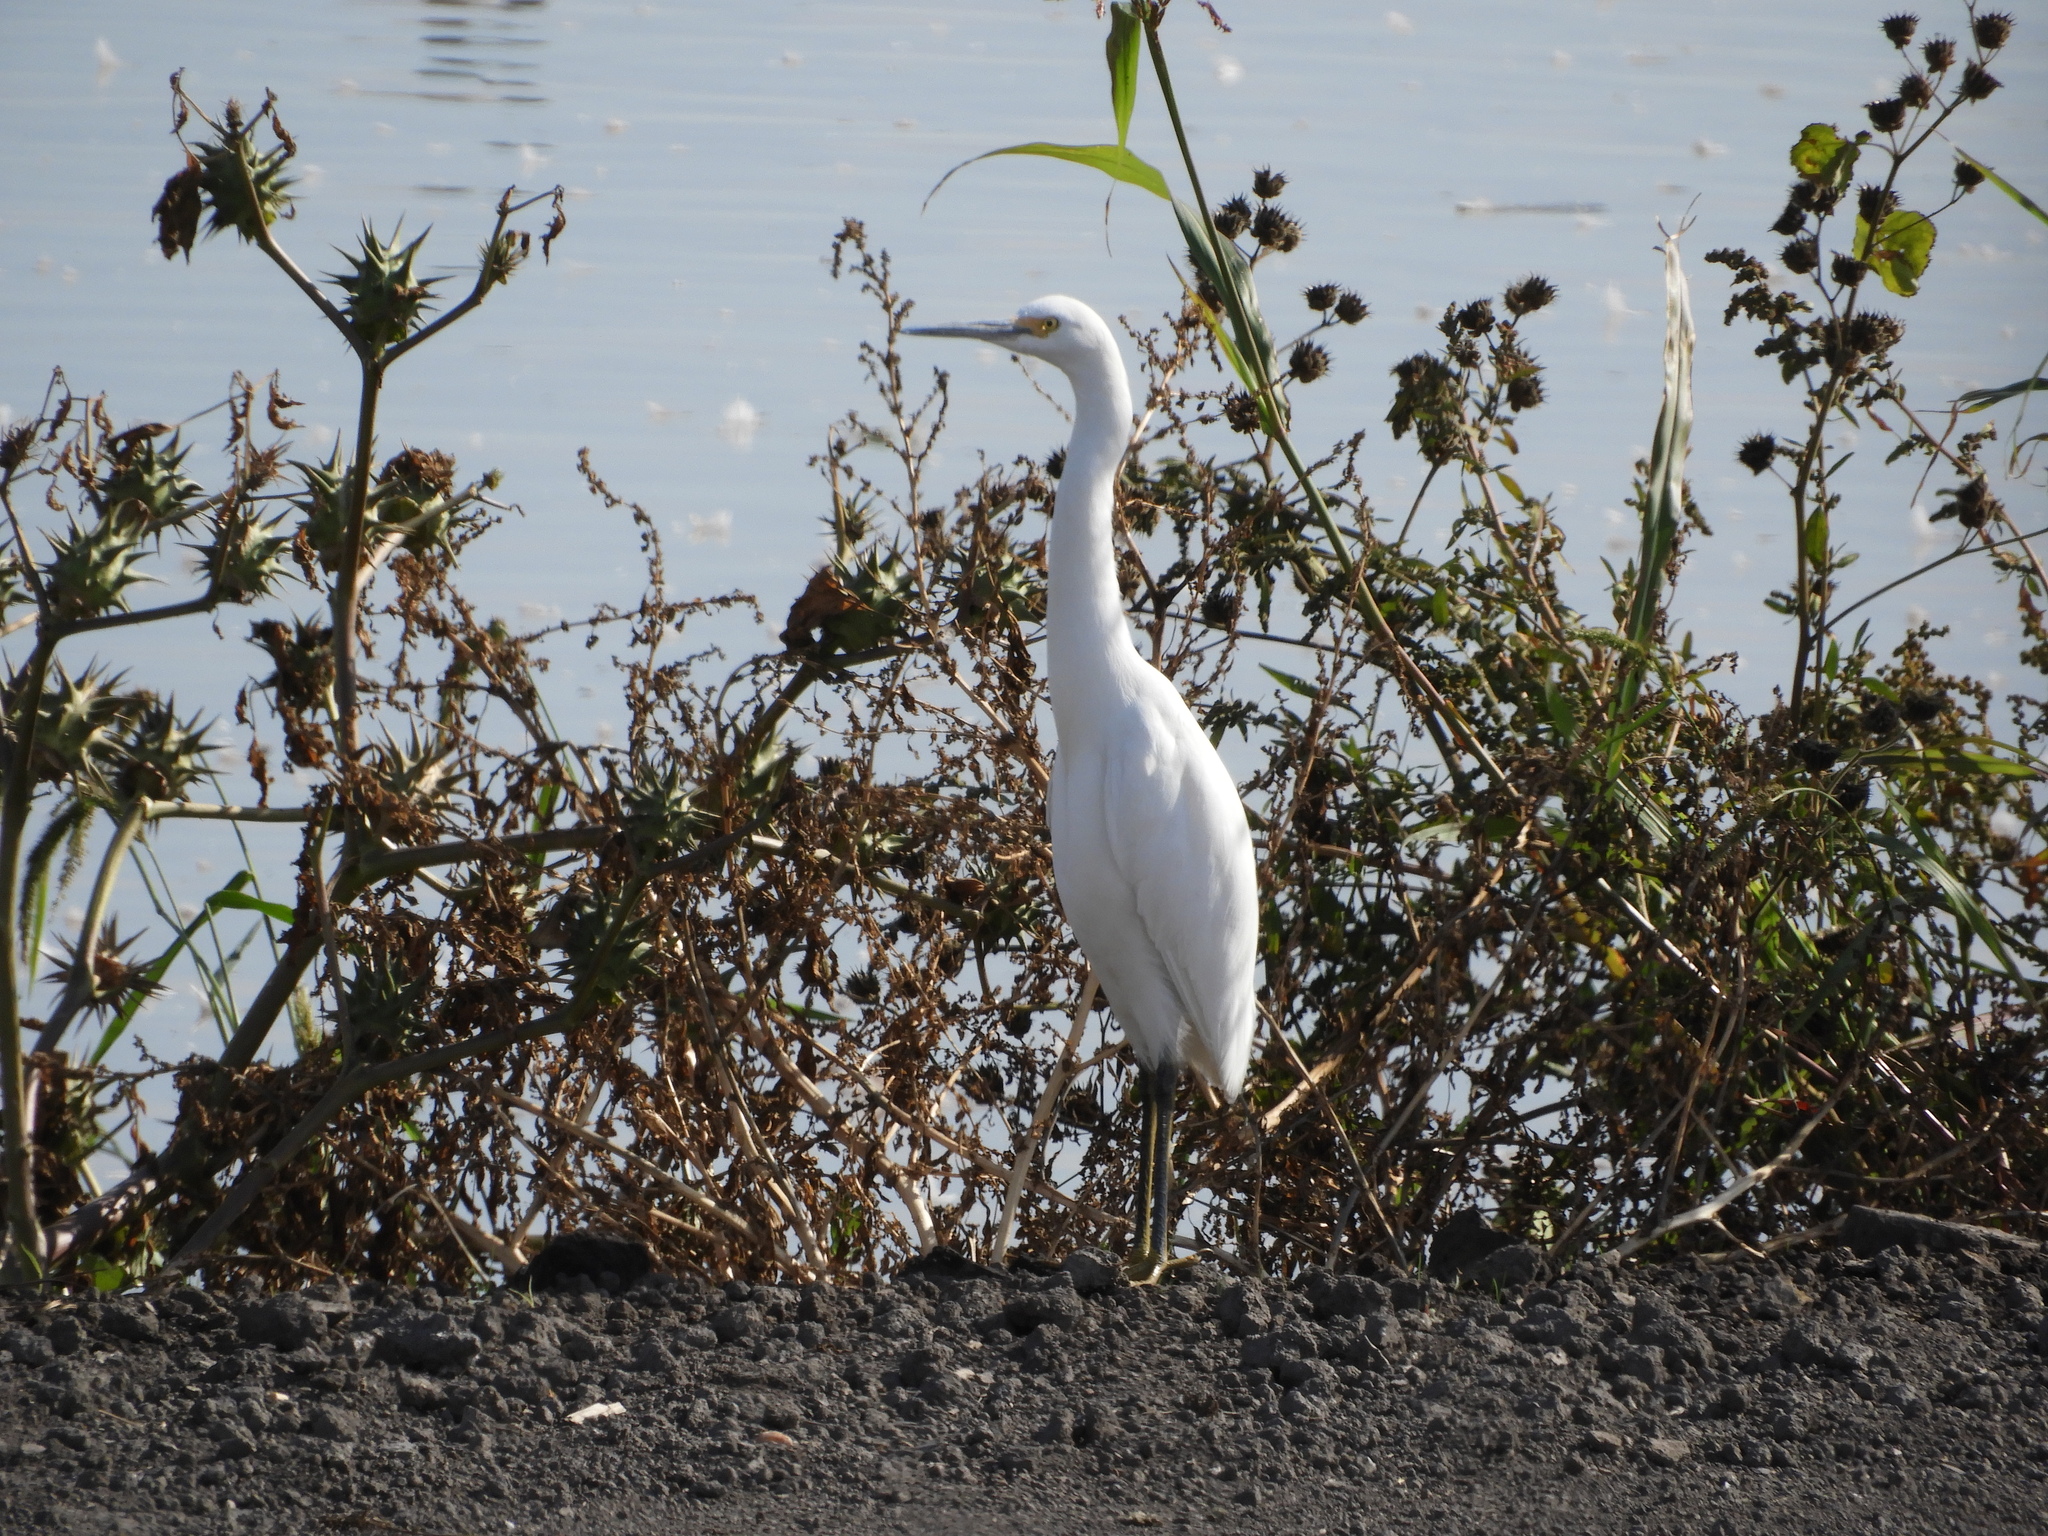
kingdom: Animalia
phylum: Chordata
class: Aves
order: Pelecaniformes
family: Ardeidae
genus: Egretta
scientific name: Egretta thula
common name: Snowy egret
